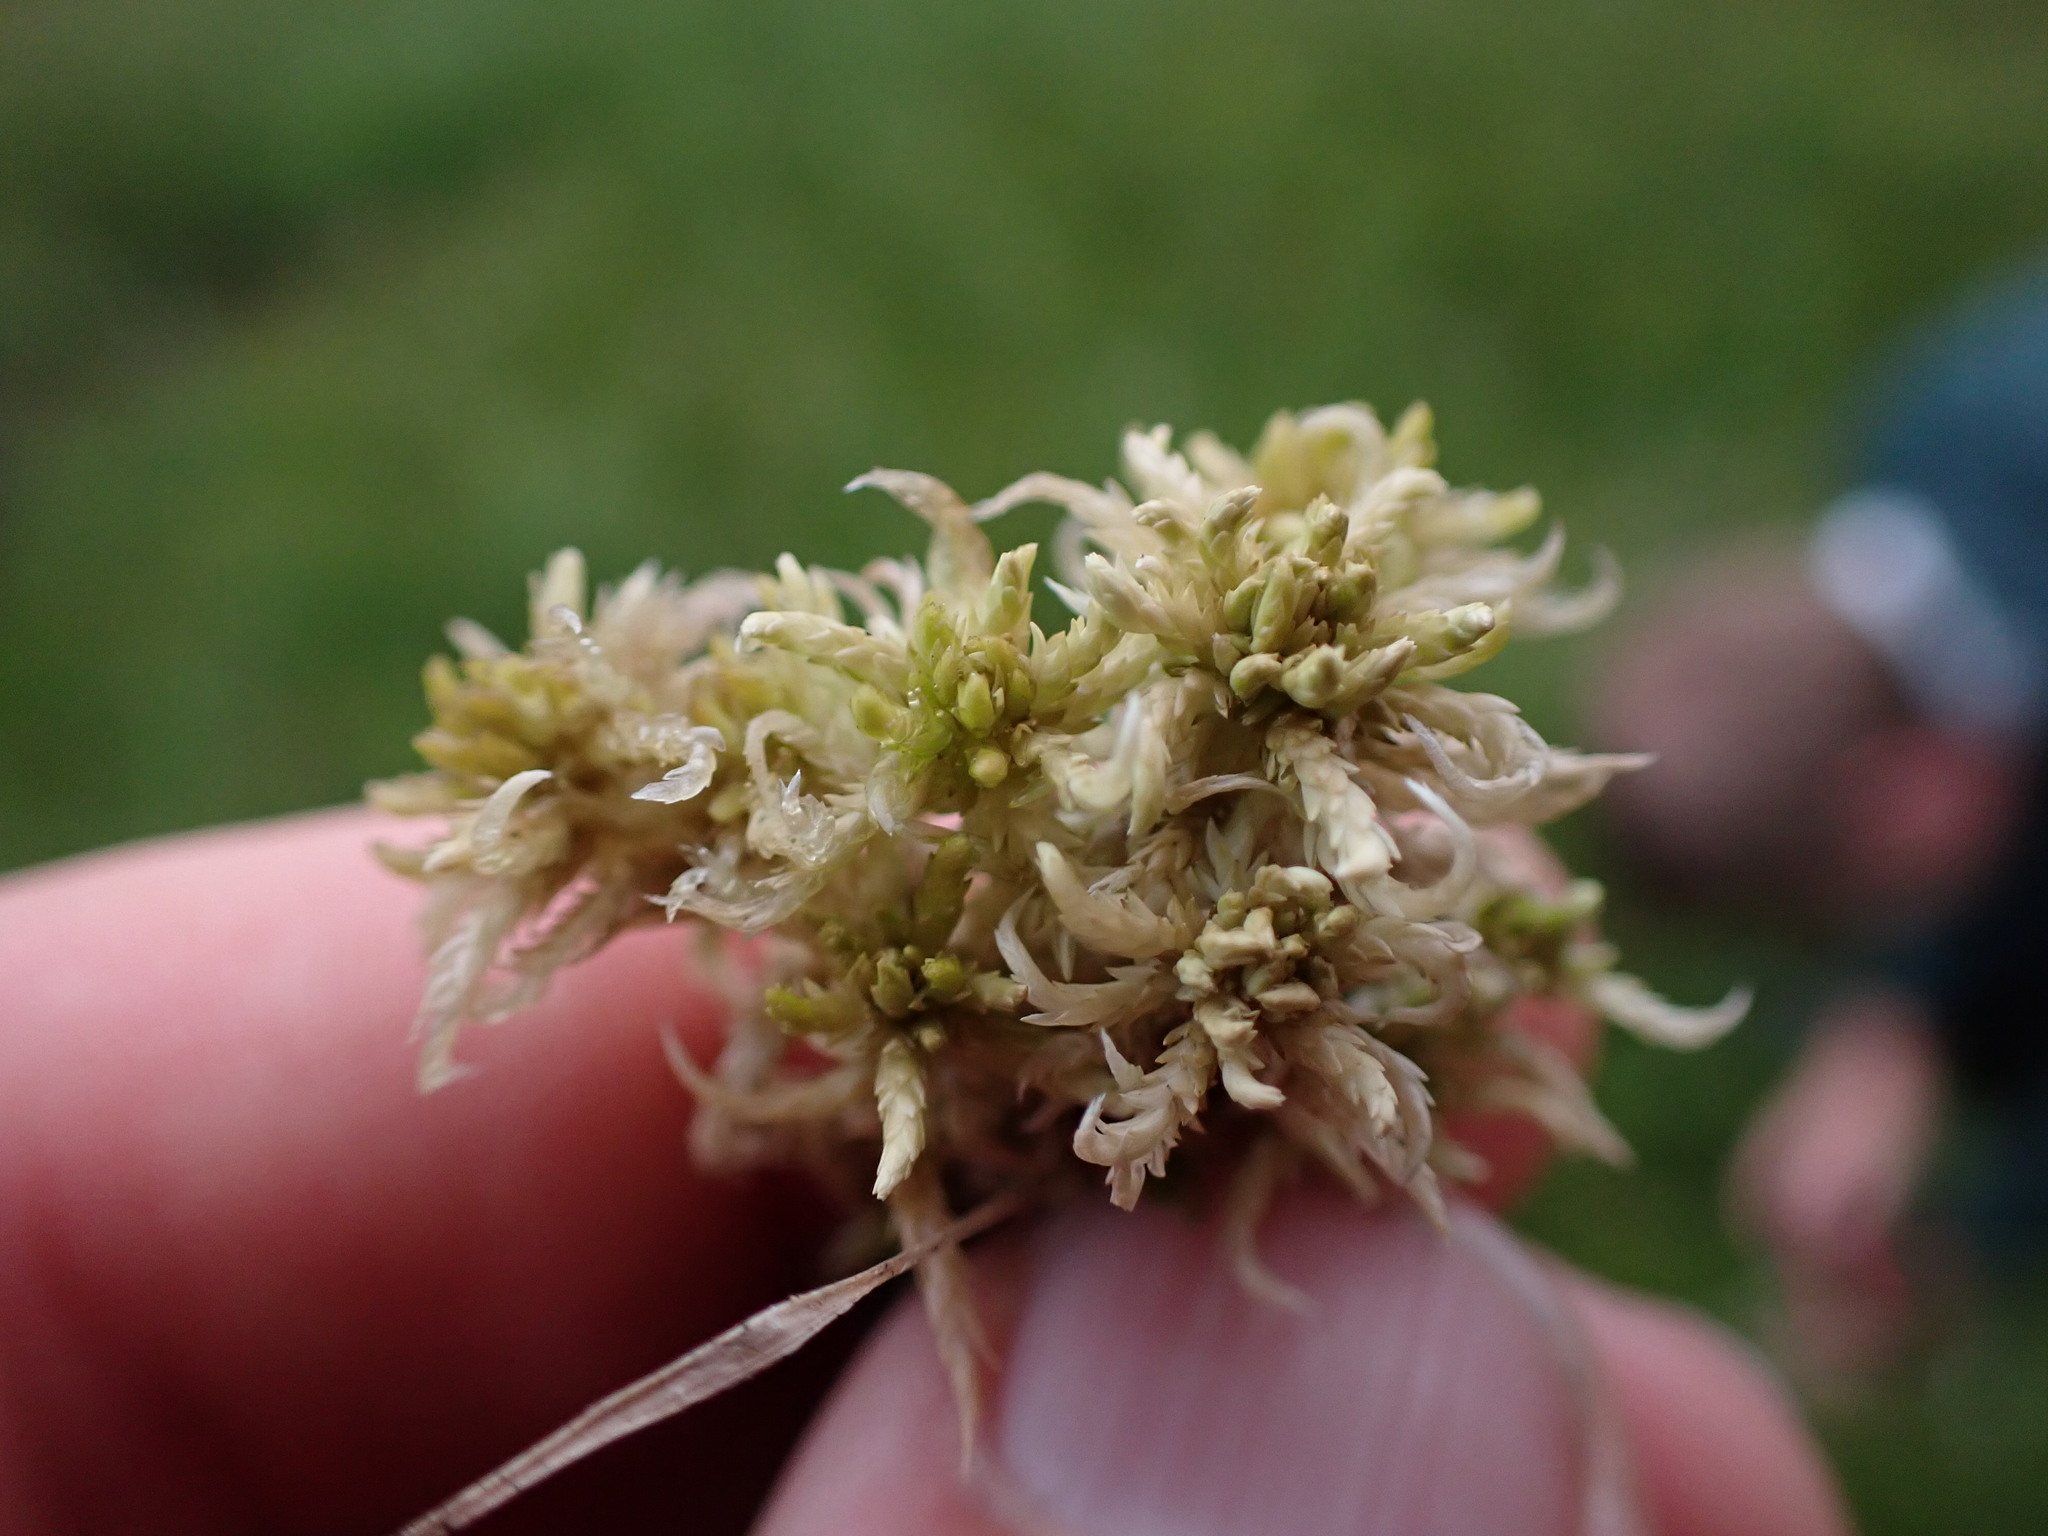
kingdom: Plantae
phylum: Bryophyta
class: Sphagnopsida
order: Sphagnales
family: Sphagnaceae
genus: Sphagnum
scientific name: Sphagnum subsecundum
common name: Orange peat moss
